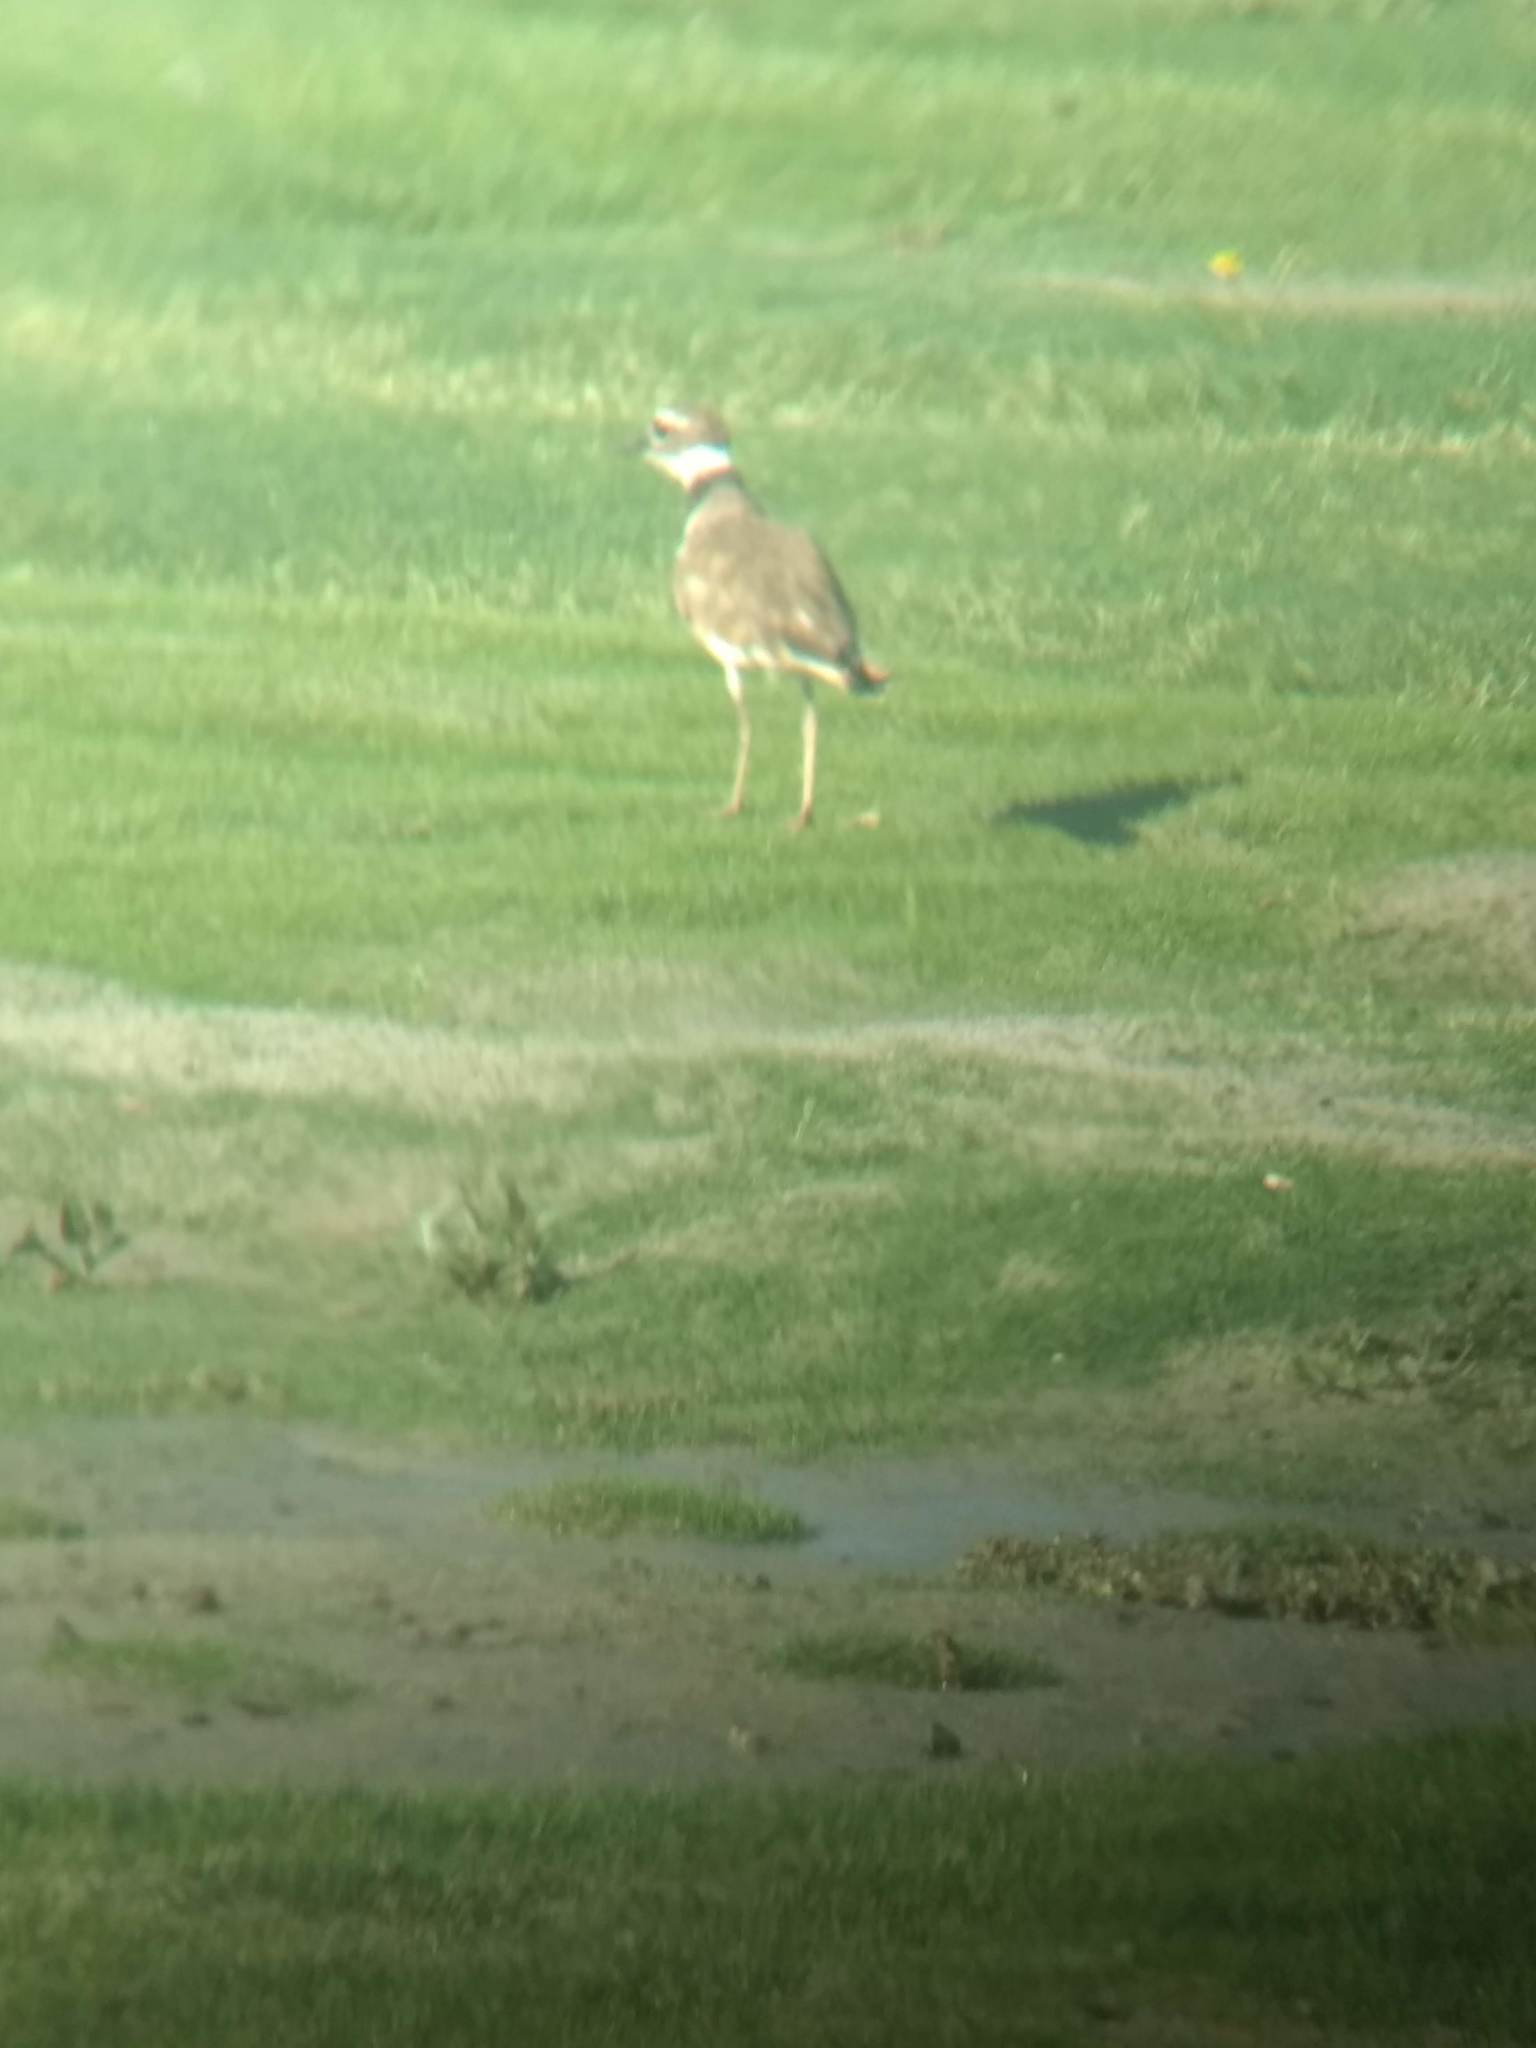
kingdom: Animalia
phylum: Chordata
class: Aves
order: Charadriiformes
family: Charadriidae
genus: Charadrius
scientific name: Charadrius vociferus
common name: Killdeer
